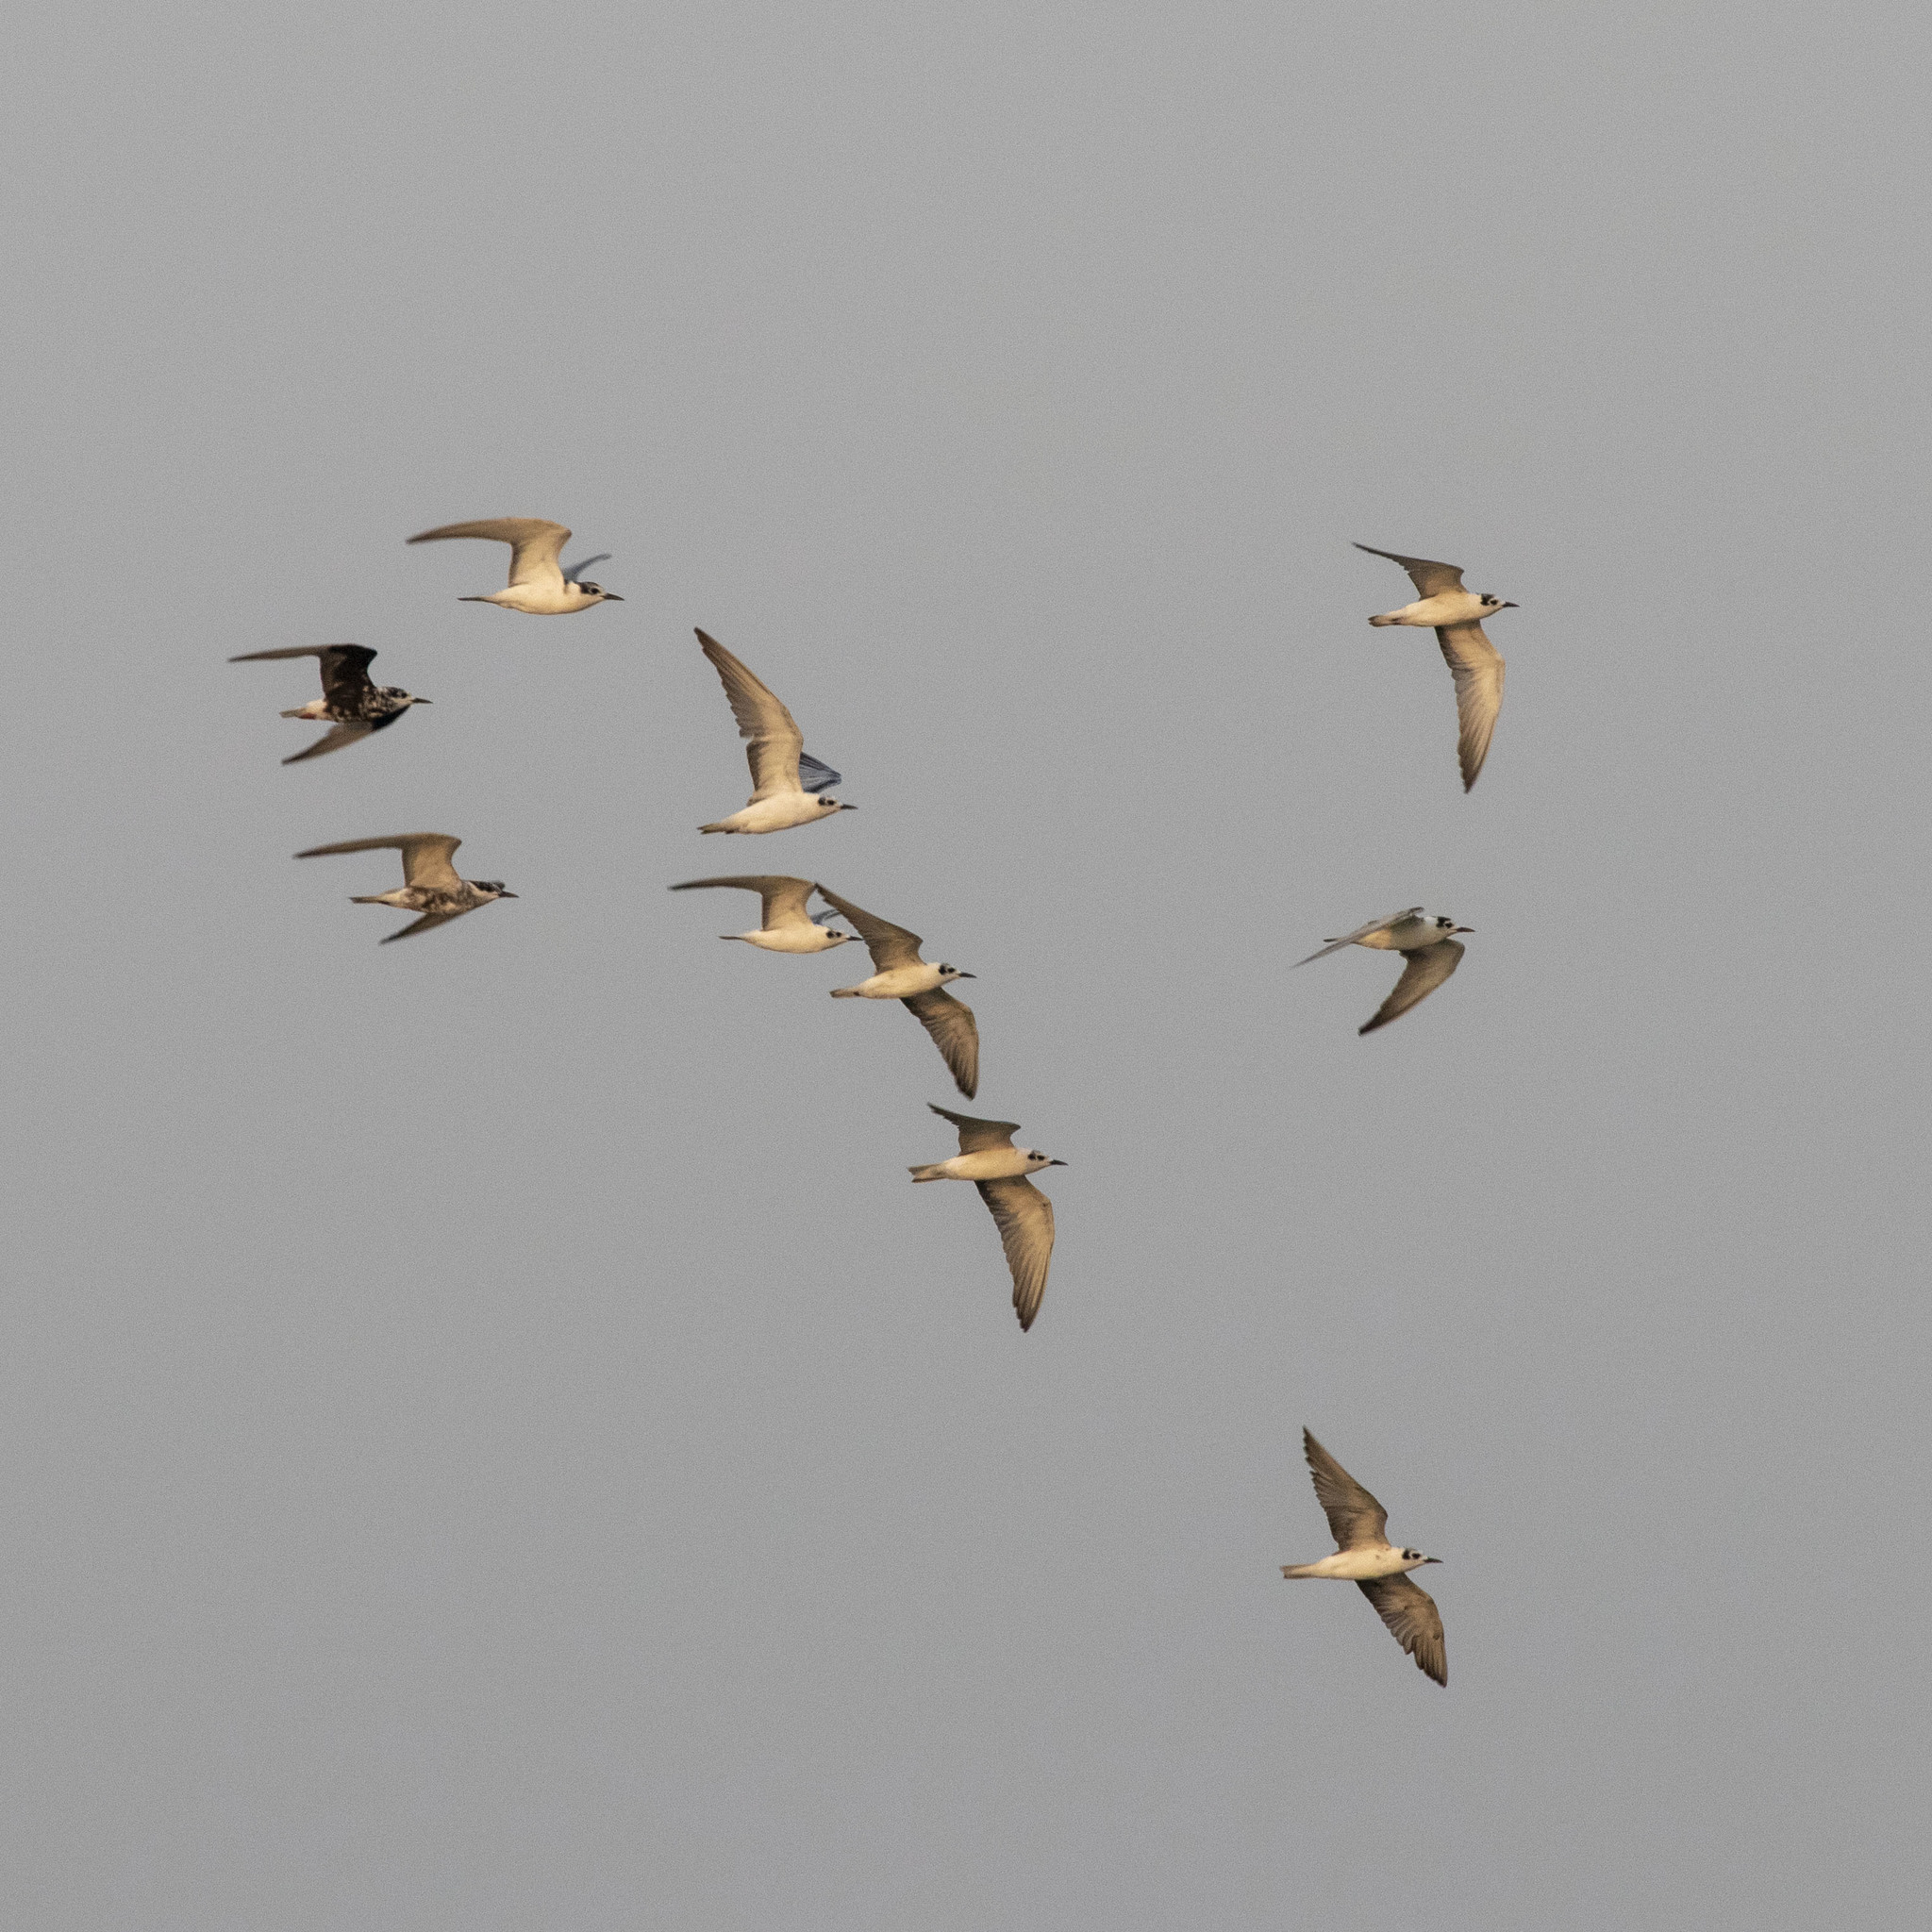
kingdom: Animalia
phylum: Chordata
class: Aves
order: Charadriiformes
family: Laridae
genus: Chlidonias
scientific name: Chlidonias leucopterus
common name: White-winged tern
